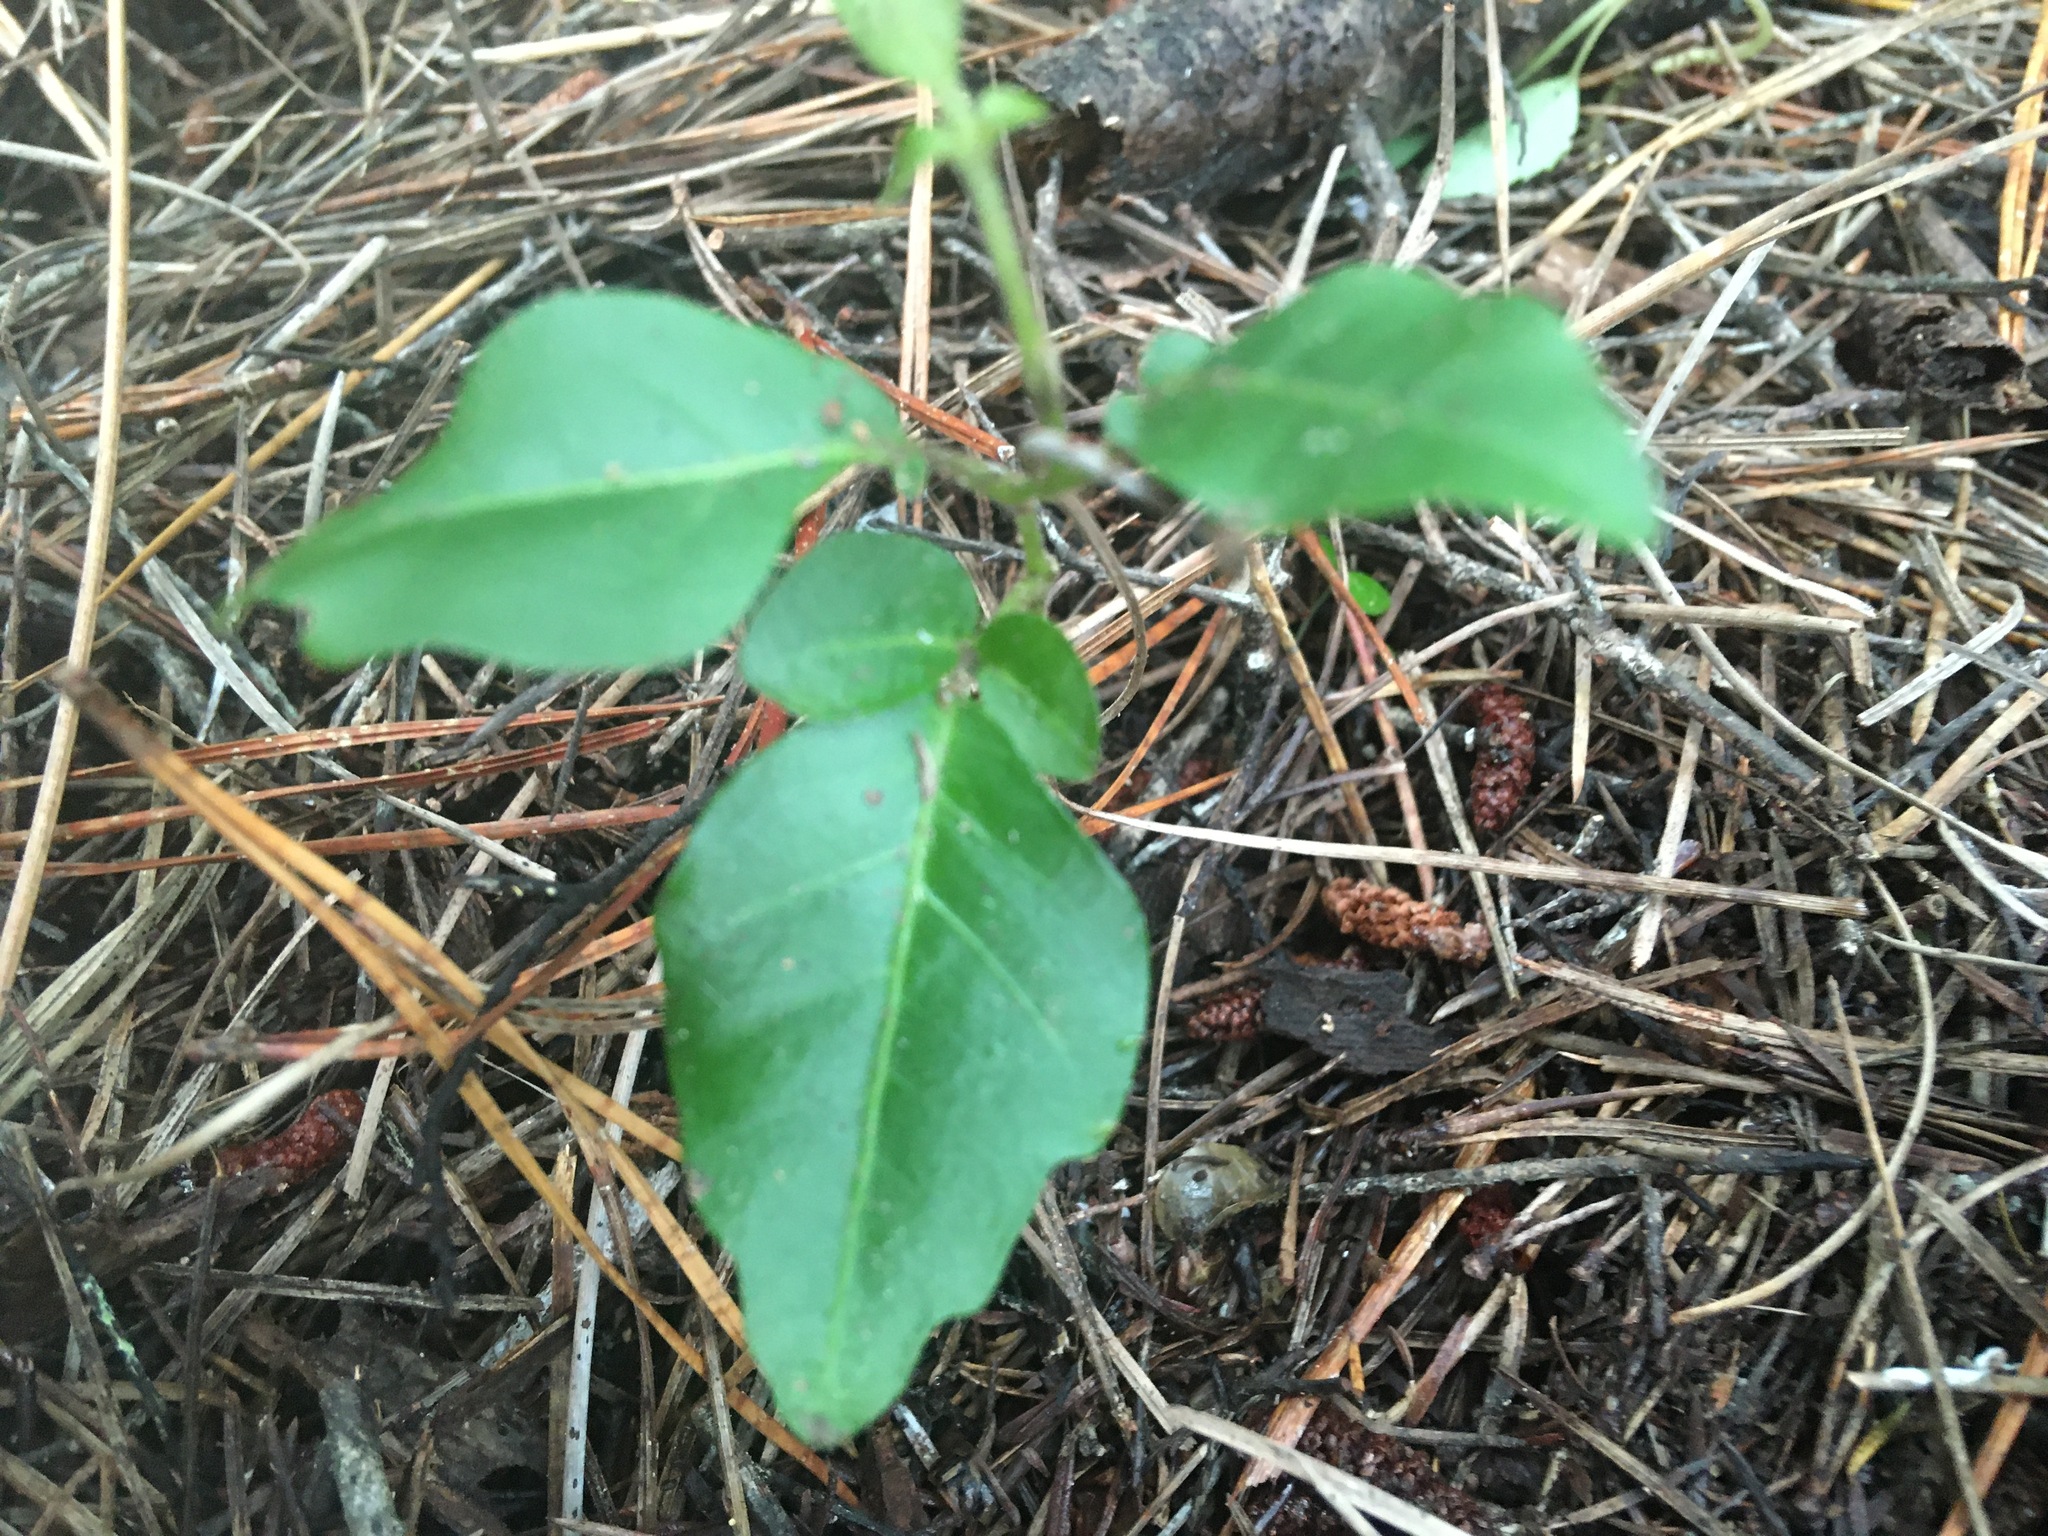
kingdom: Plantae
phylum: Tracheophyta
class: Magnoliopsida
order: Sapindales
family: Meliaceae
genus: Didymocheton
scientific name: Didymocheton spectabilis
